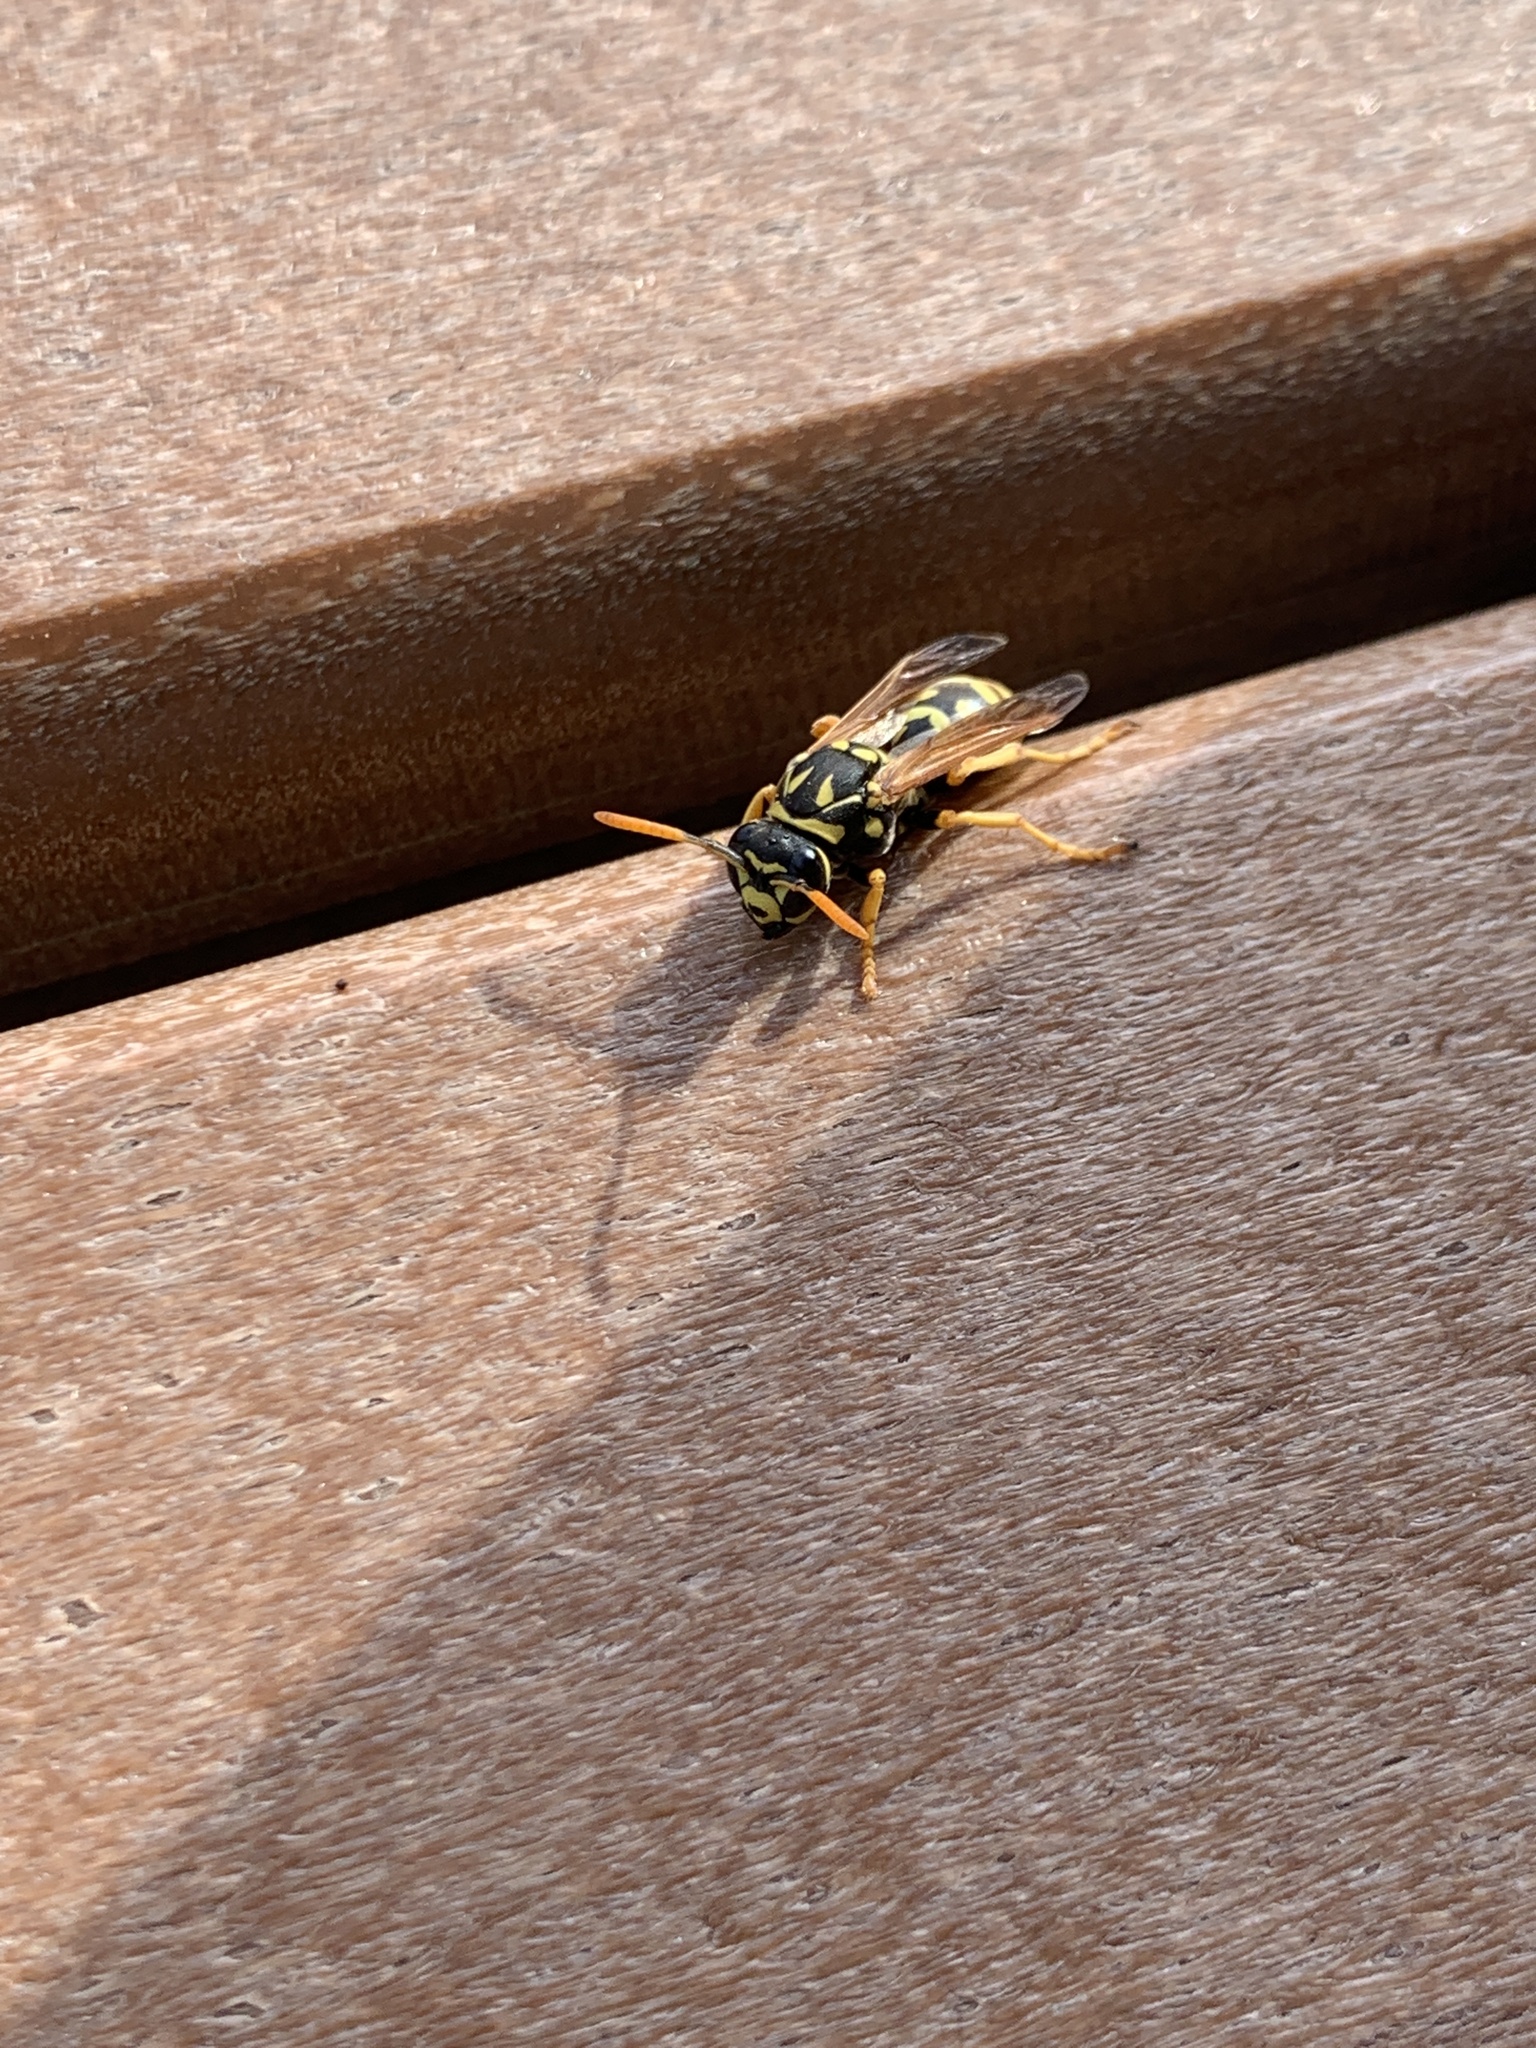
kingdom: Animalia
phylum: Arthropoda
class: Insecta
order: Hymenoptera
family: Eumenidae
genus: Polistes
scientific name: Polistes dominula
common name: Paper wasp
